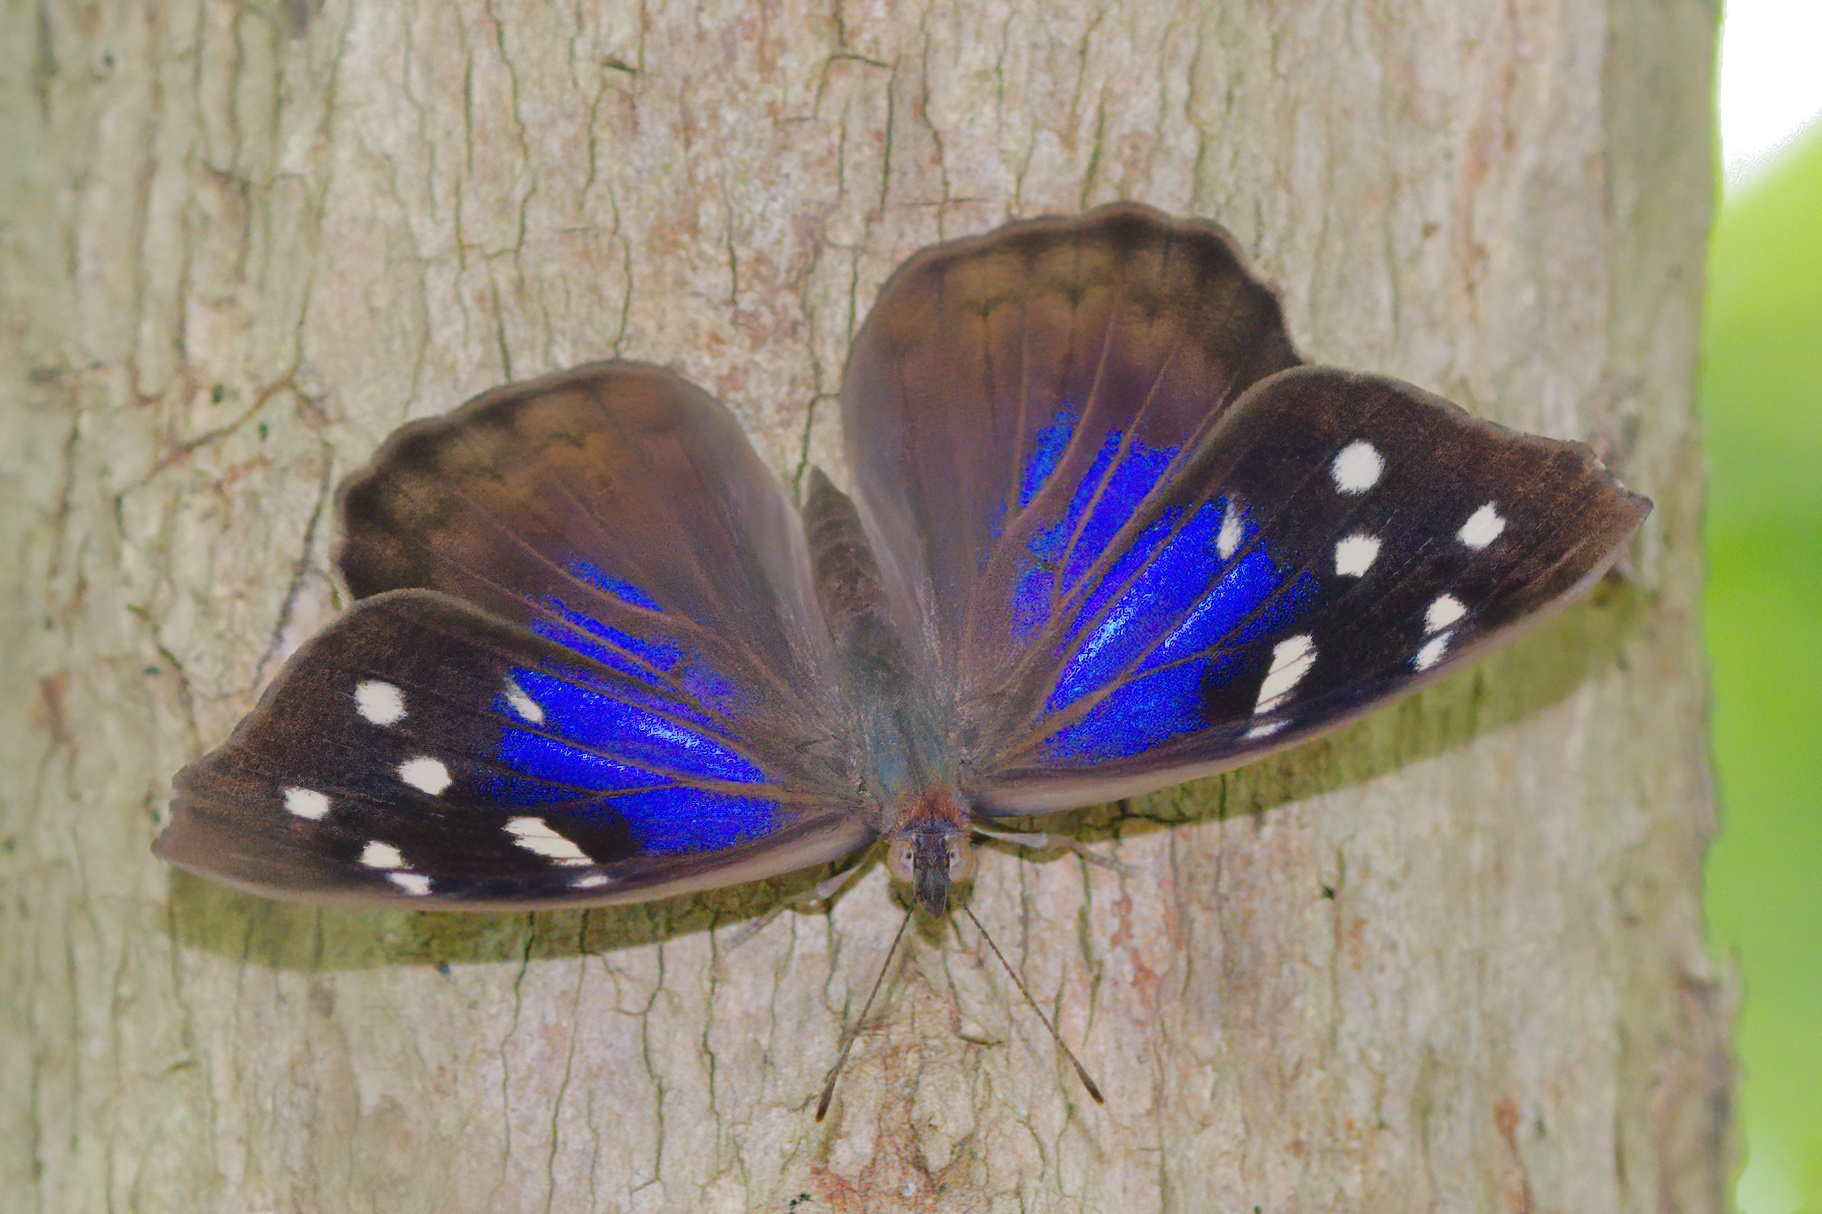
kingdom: Animalia
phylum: Arthropoda
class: Insecta
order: Lepidoptera
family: Nymphalidae
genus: Eunica
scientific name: Eunica tatila
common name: Florida purplewing
